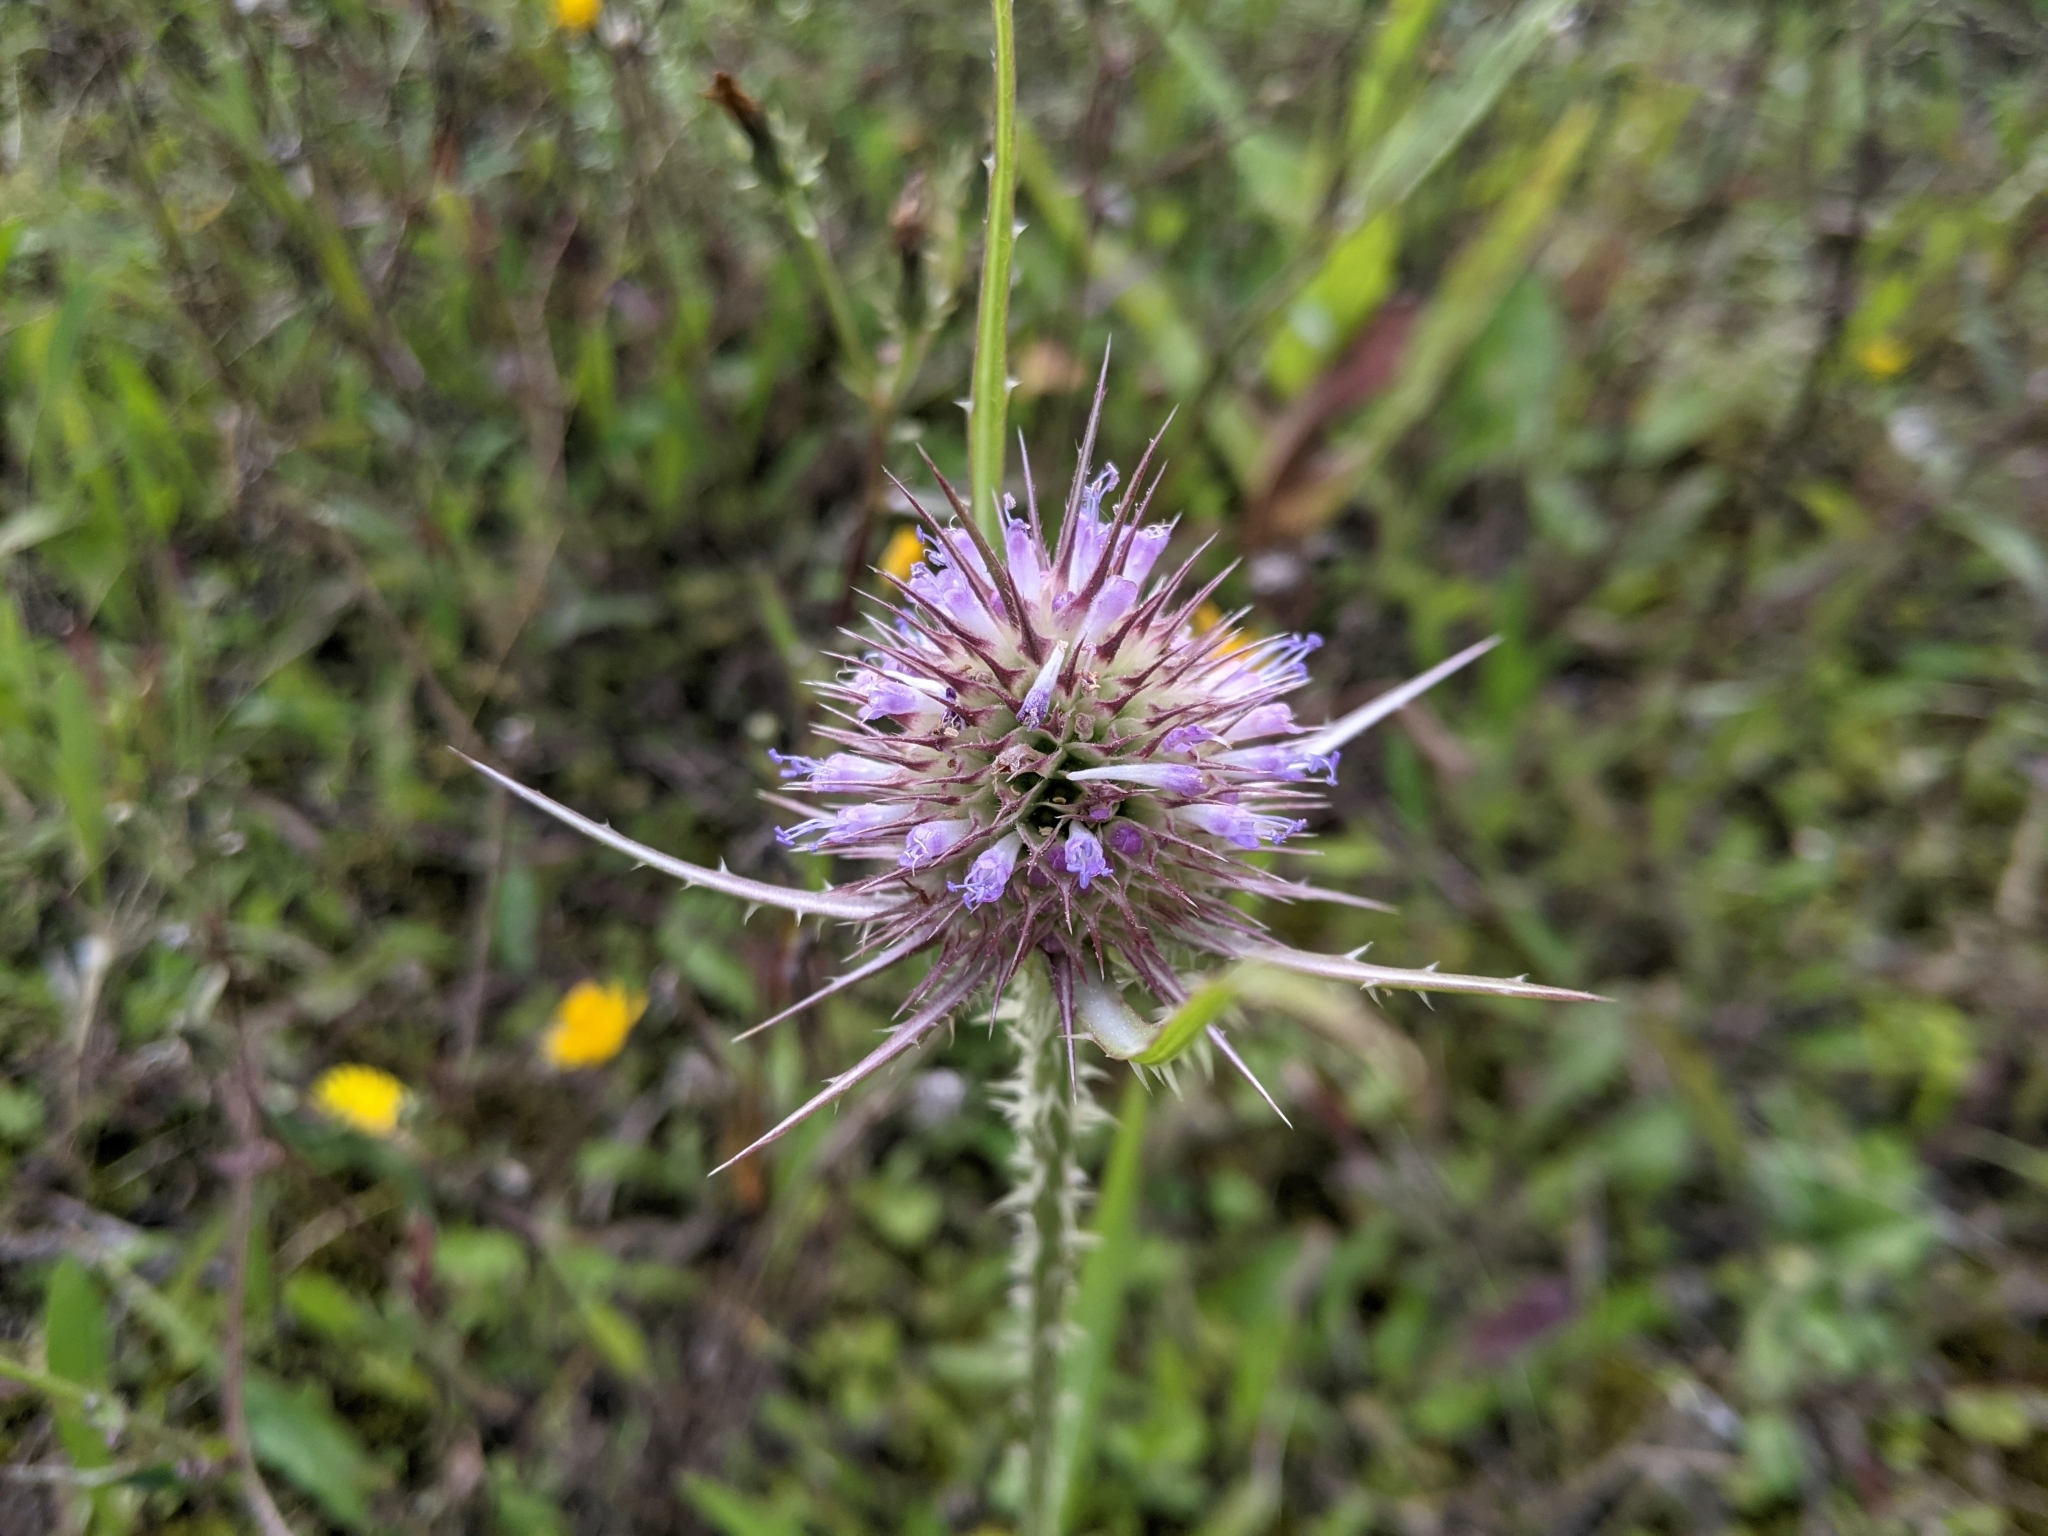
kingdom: Plantae
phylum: Tracheophyta
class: Magnoliopsida
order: Dipsacales
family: Caprifoliaceae
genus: Dipsacus
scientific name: Dipsacus fullonum
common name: Teasel
